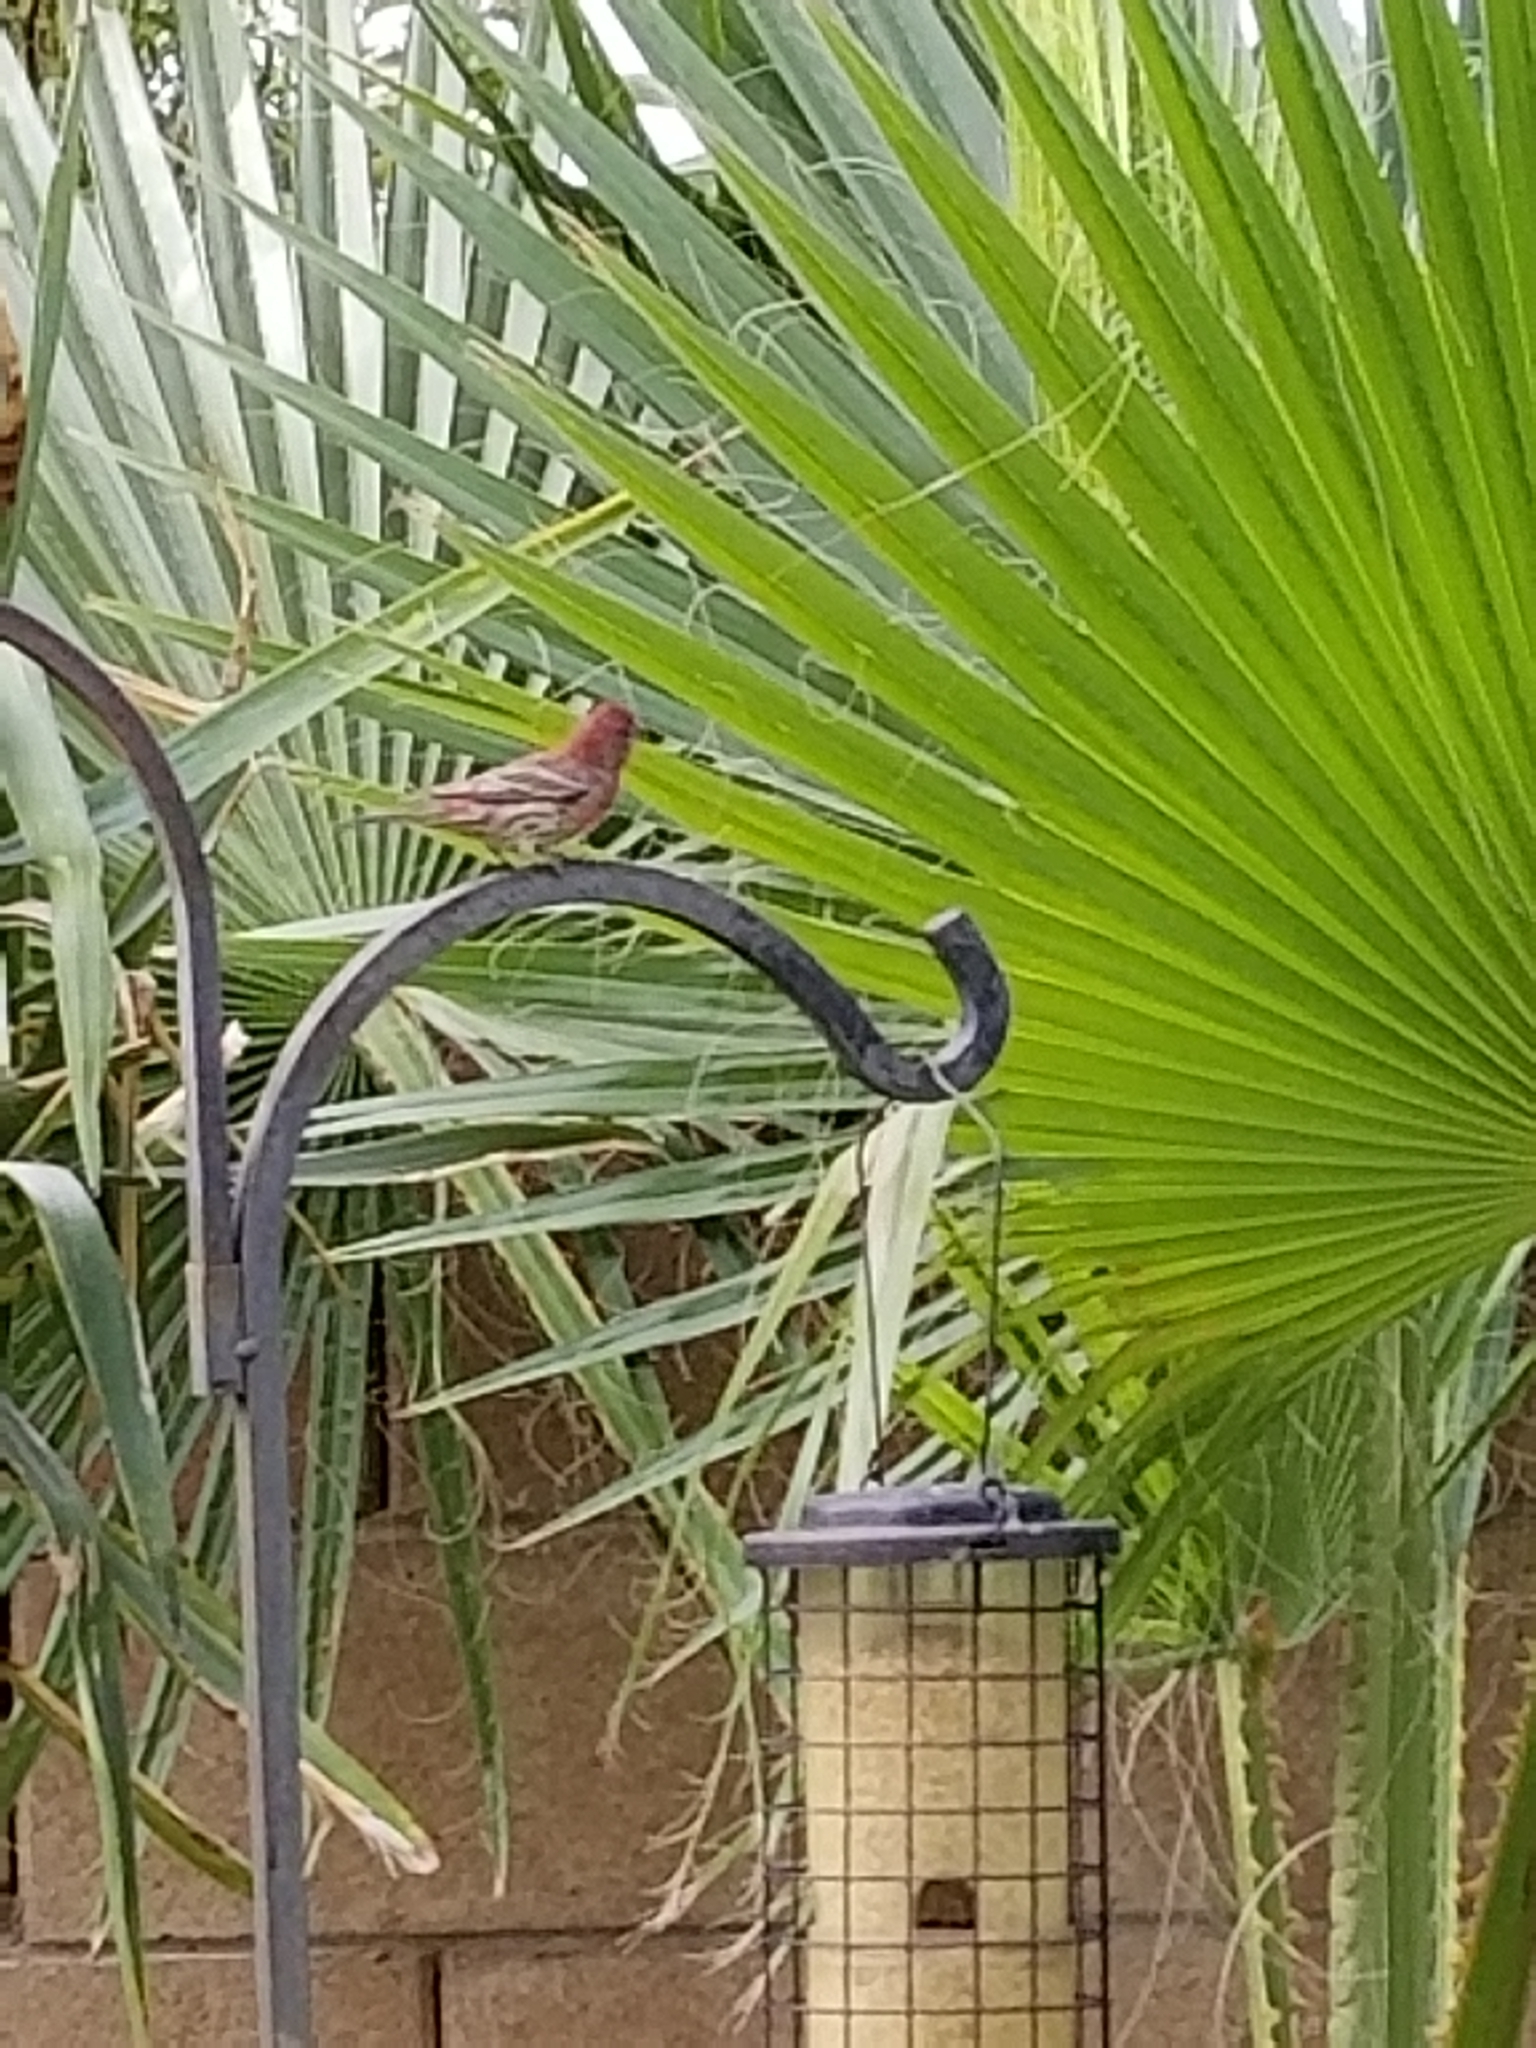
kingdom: Animalia
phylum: Chordata
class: Aves
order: Passeriformes
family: Fringillidae
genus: Haemorhous
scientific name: Haemorhous mexicanus
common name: House finch
